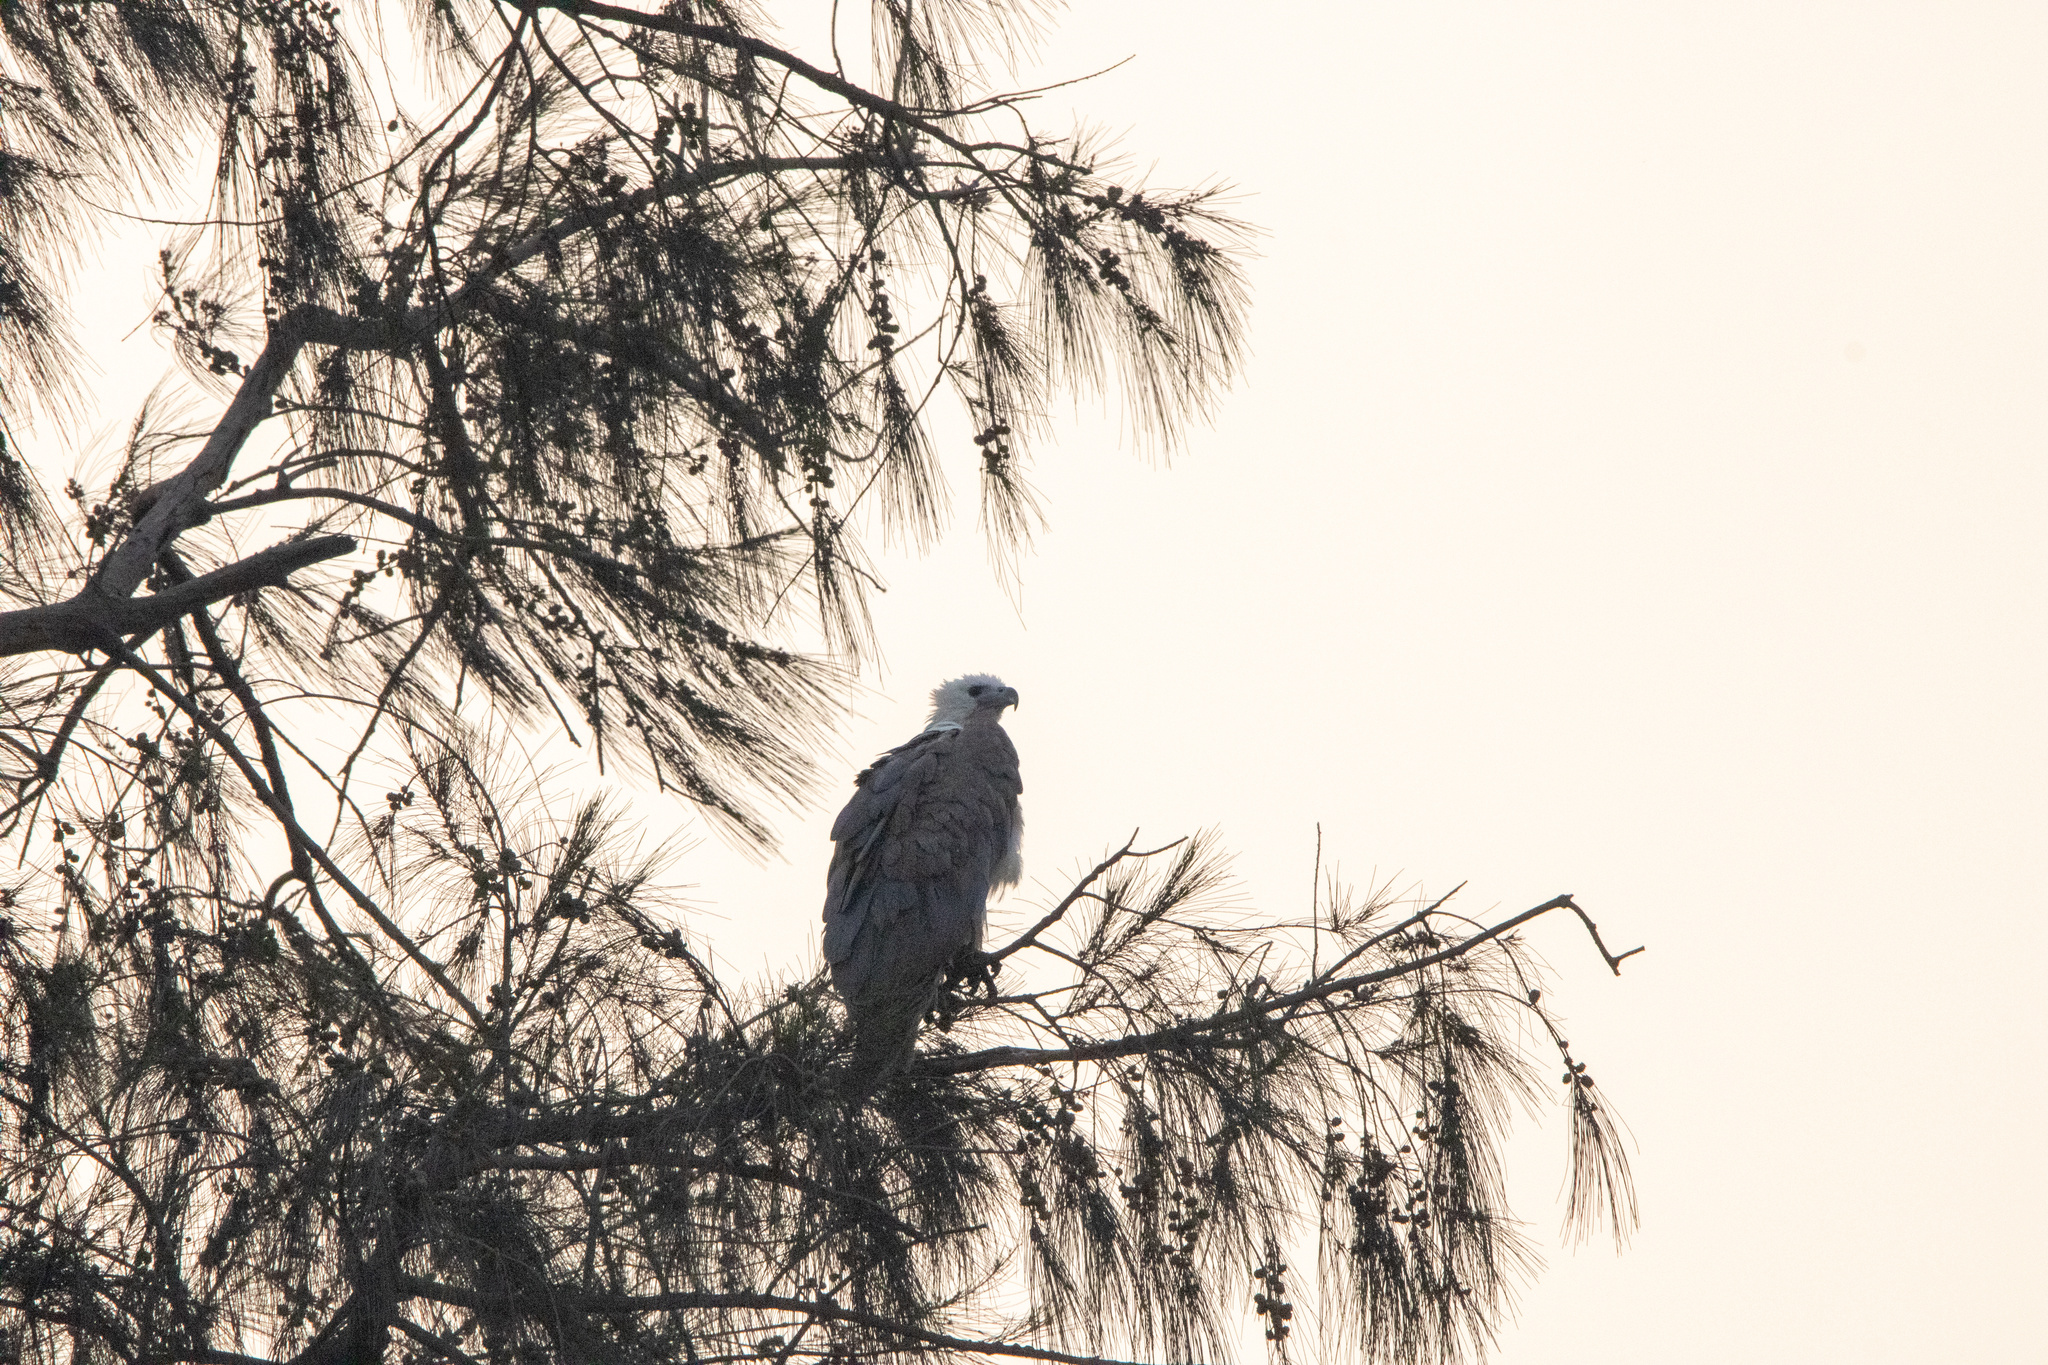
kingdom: Animalia
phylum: Chordata
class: Aves
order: Accipitriformes
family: Accipitridae
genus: Haliaeetus
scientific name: Haliaeetus leucogaster
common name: White-bellied sea eagle
